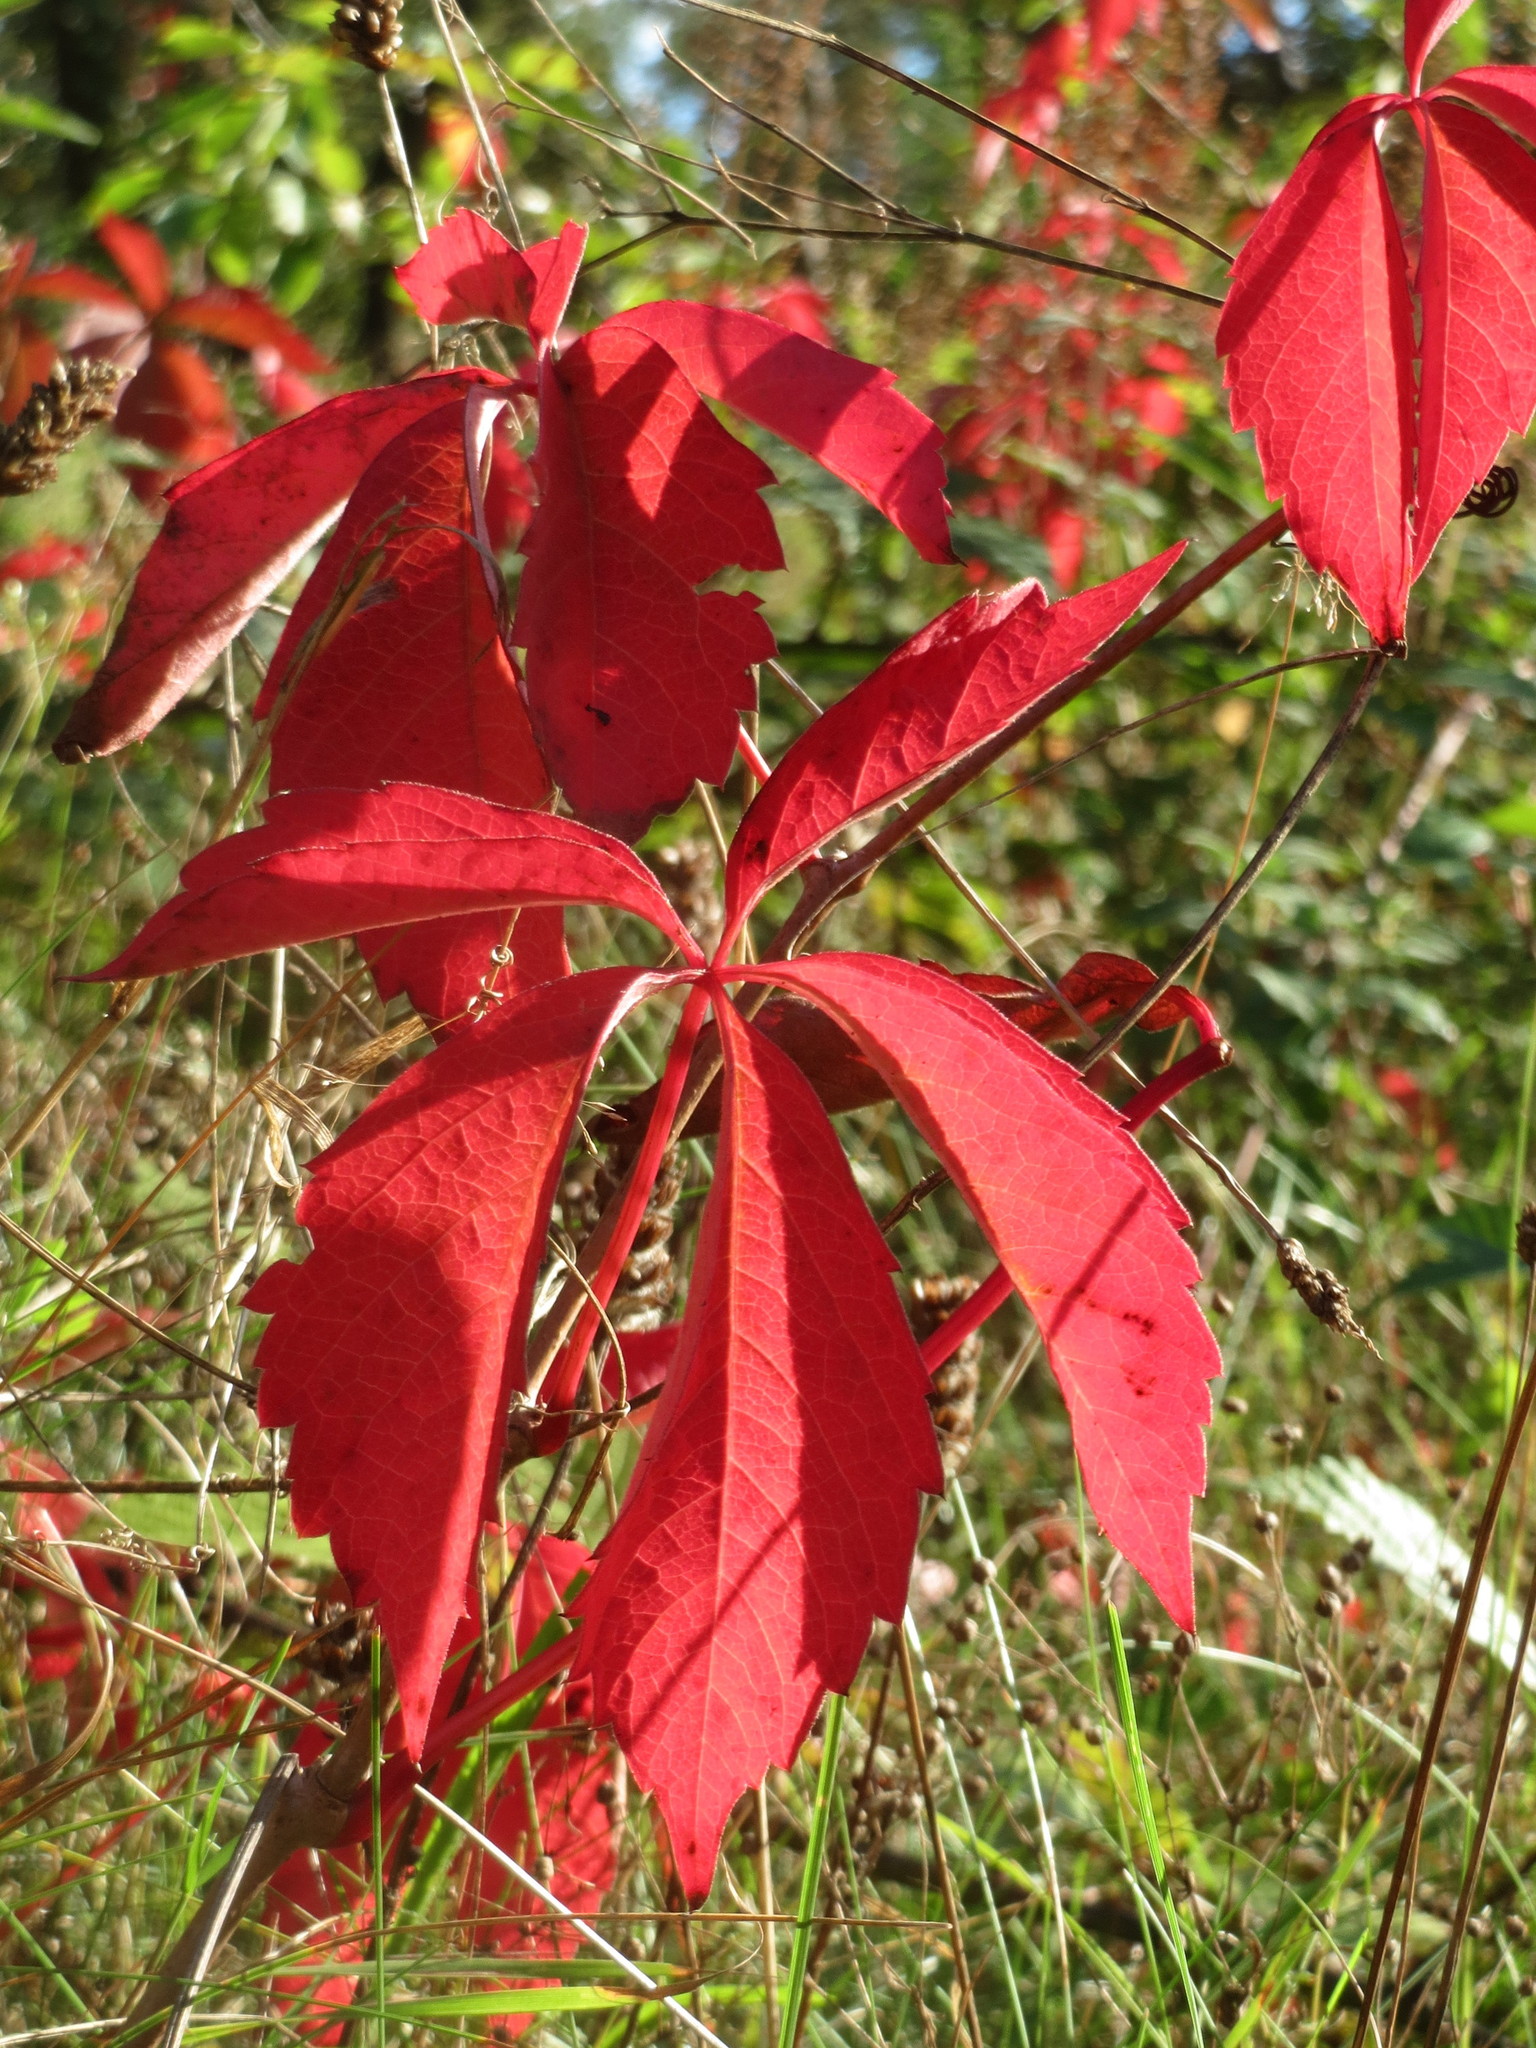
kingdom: Plantae
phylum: Tracheophyta
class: Magnoliopsida
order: Vitales
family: Vitaceae
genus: Parthenocissus
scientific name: Parthenocissus quinquefolia
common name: Virginia-creeper
